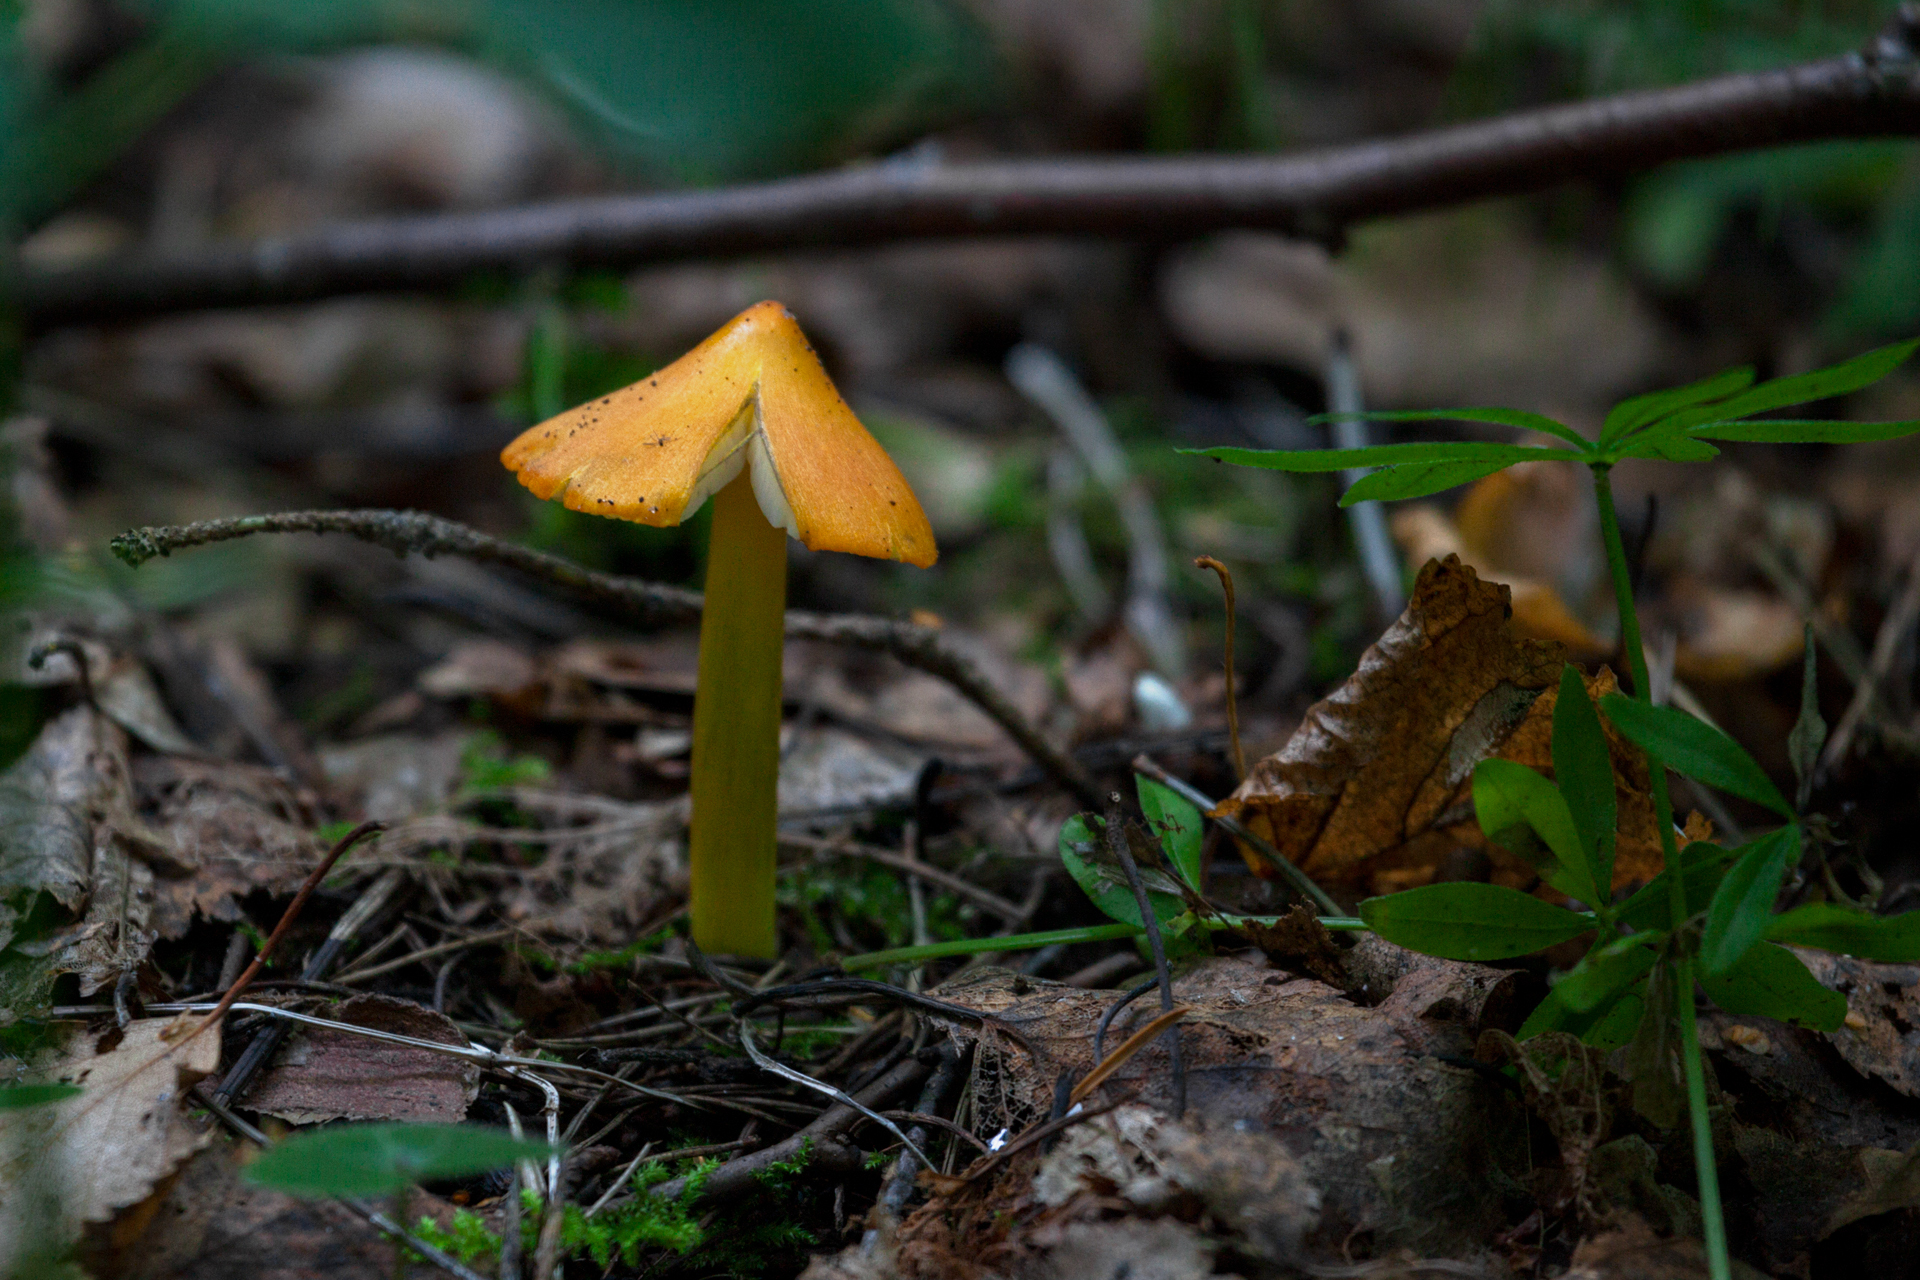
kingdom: Fungi
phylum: Basidiomycota
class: Agaricomycetes
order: Agaricales
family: Hygrophoraceae
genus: Hygrocybe
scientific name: Hygrocybe conica
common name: Blackening wax-cap
